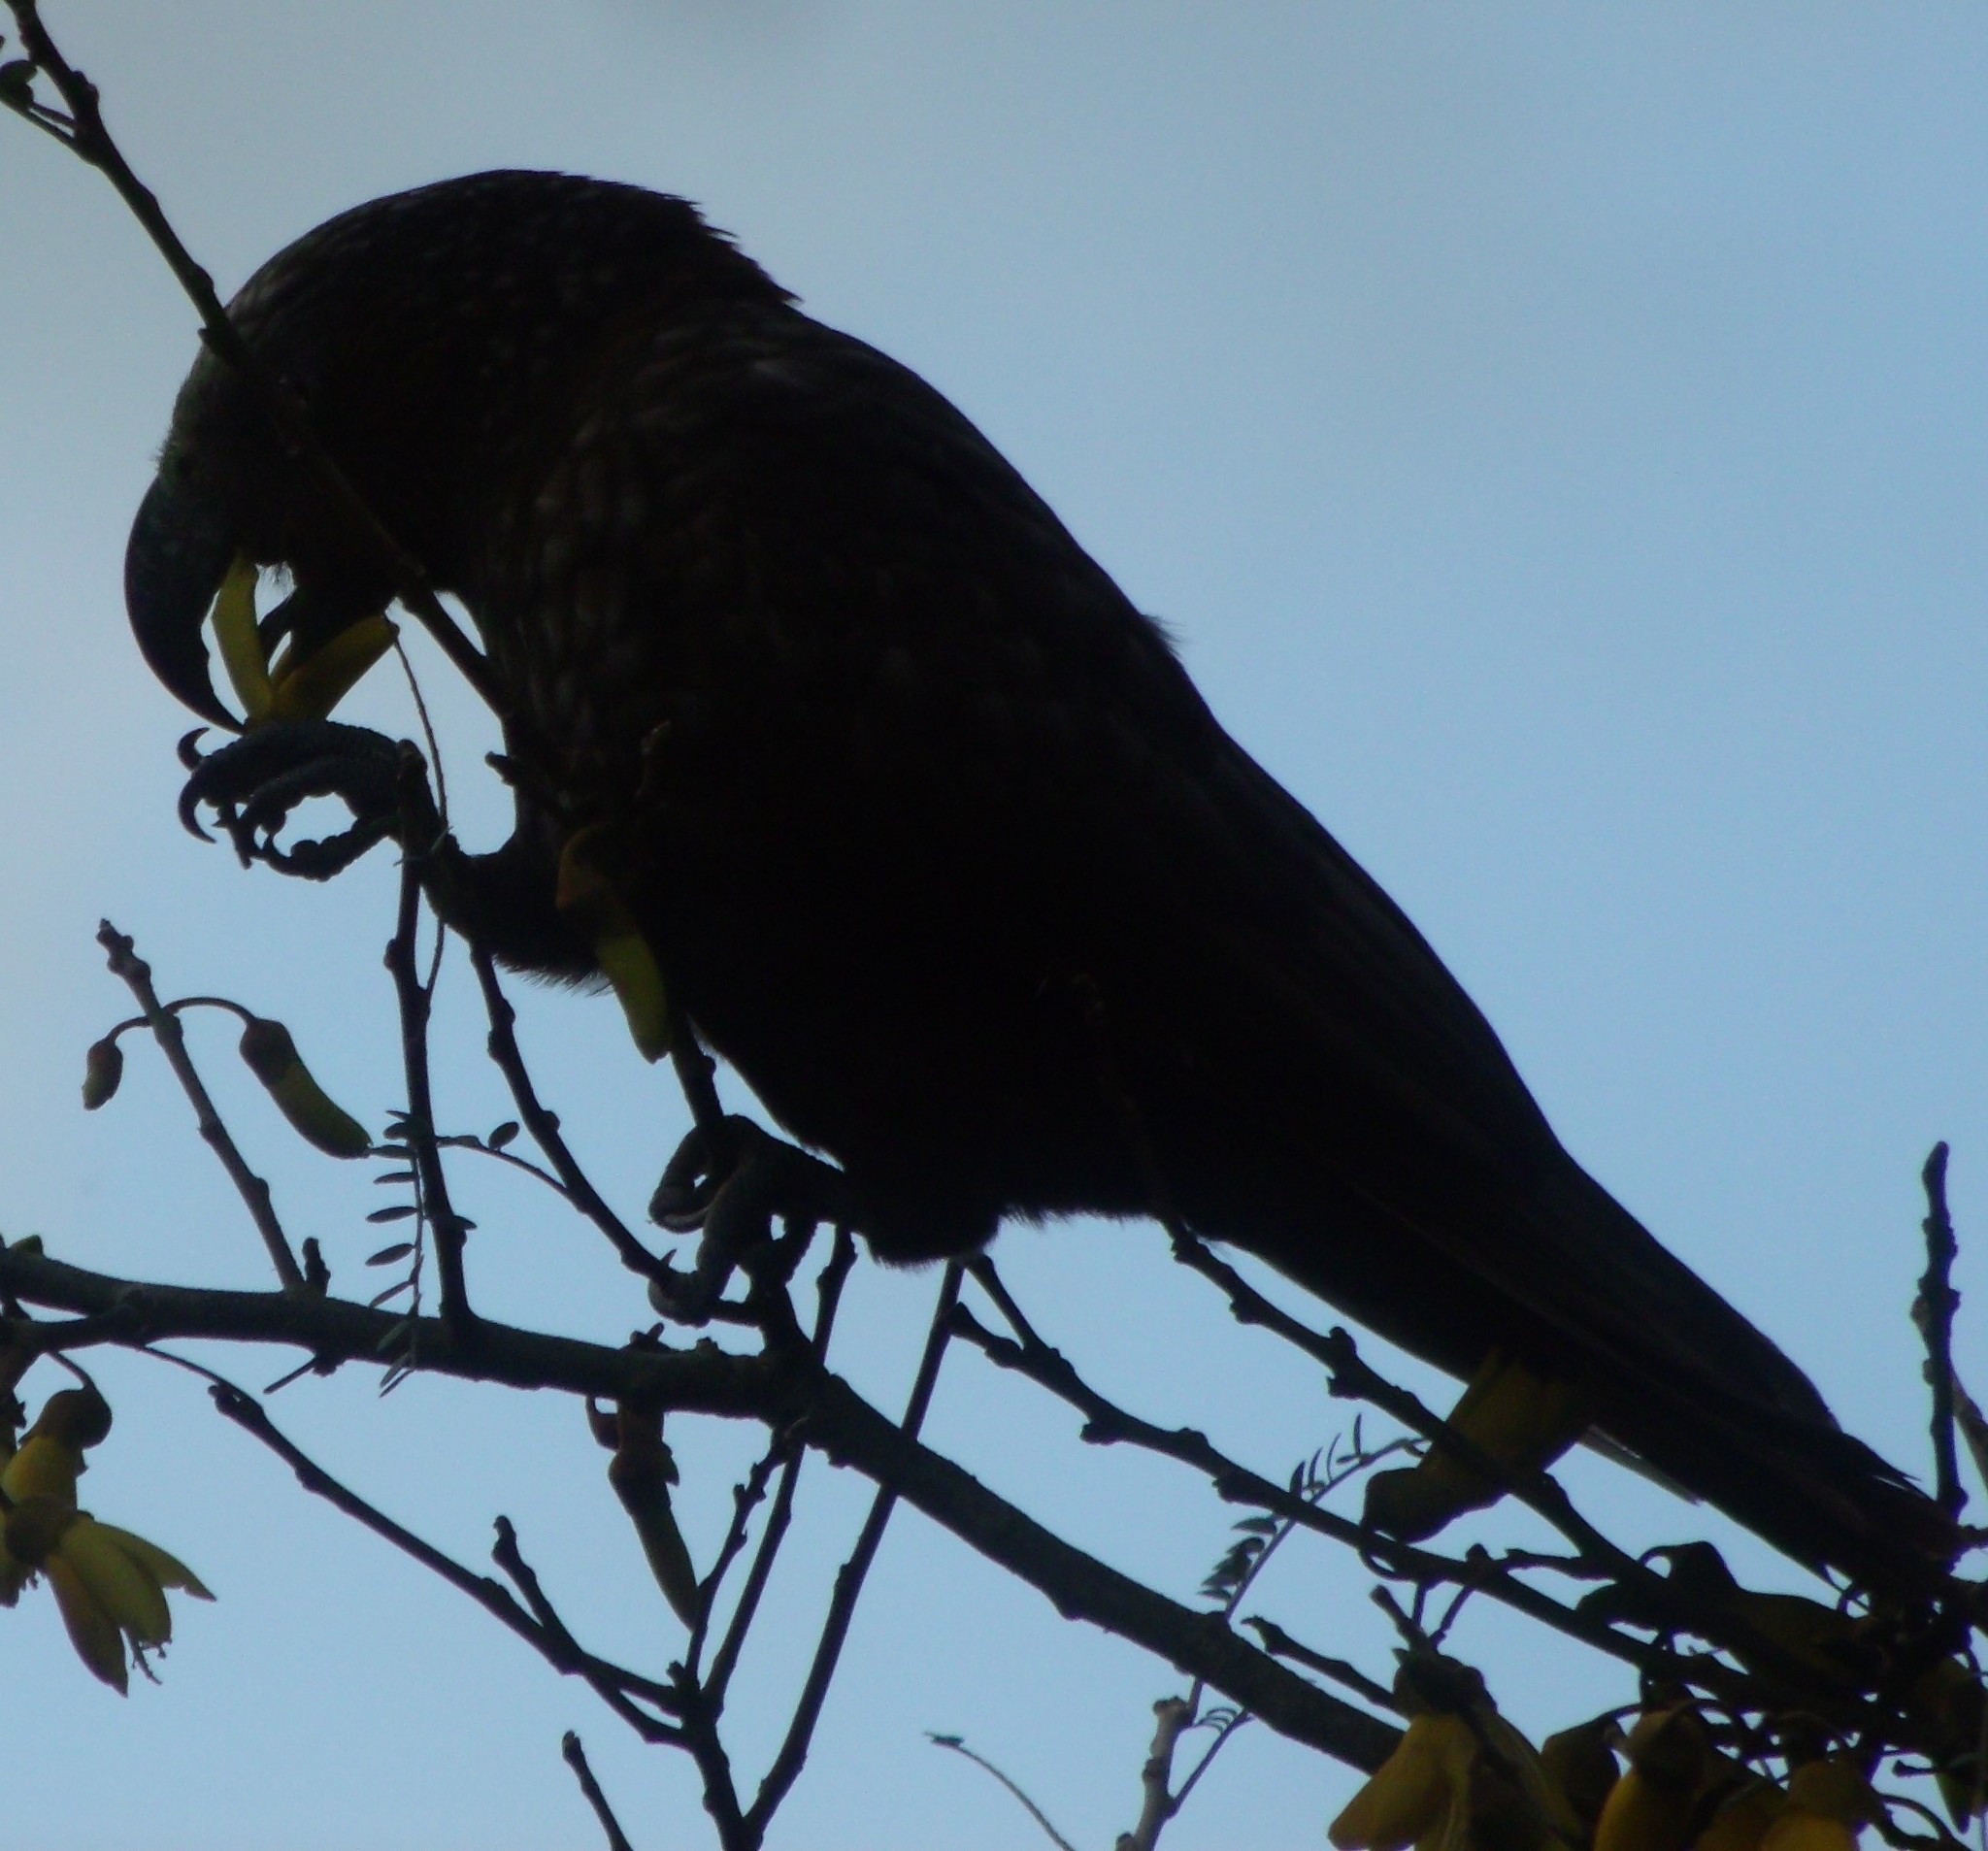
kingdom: Animalia
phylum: Chordata
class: Aves
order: Psittaciformes
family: Psittacidae
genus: Nestor
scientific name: Nestor meridionalis
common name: New zealand kaka
